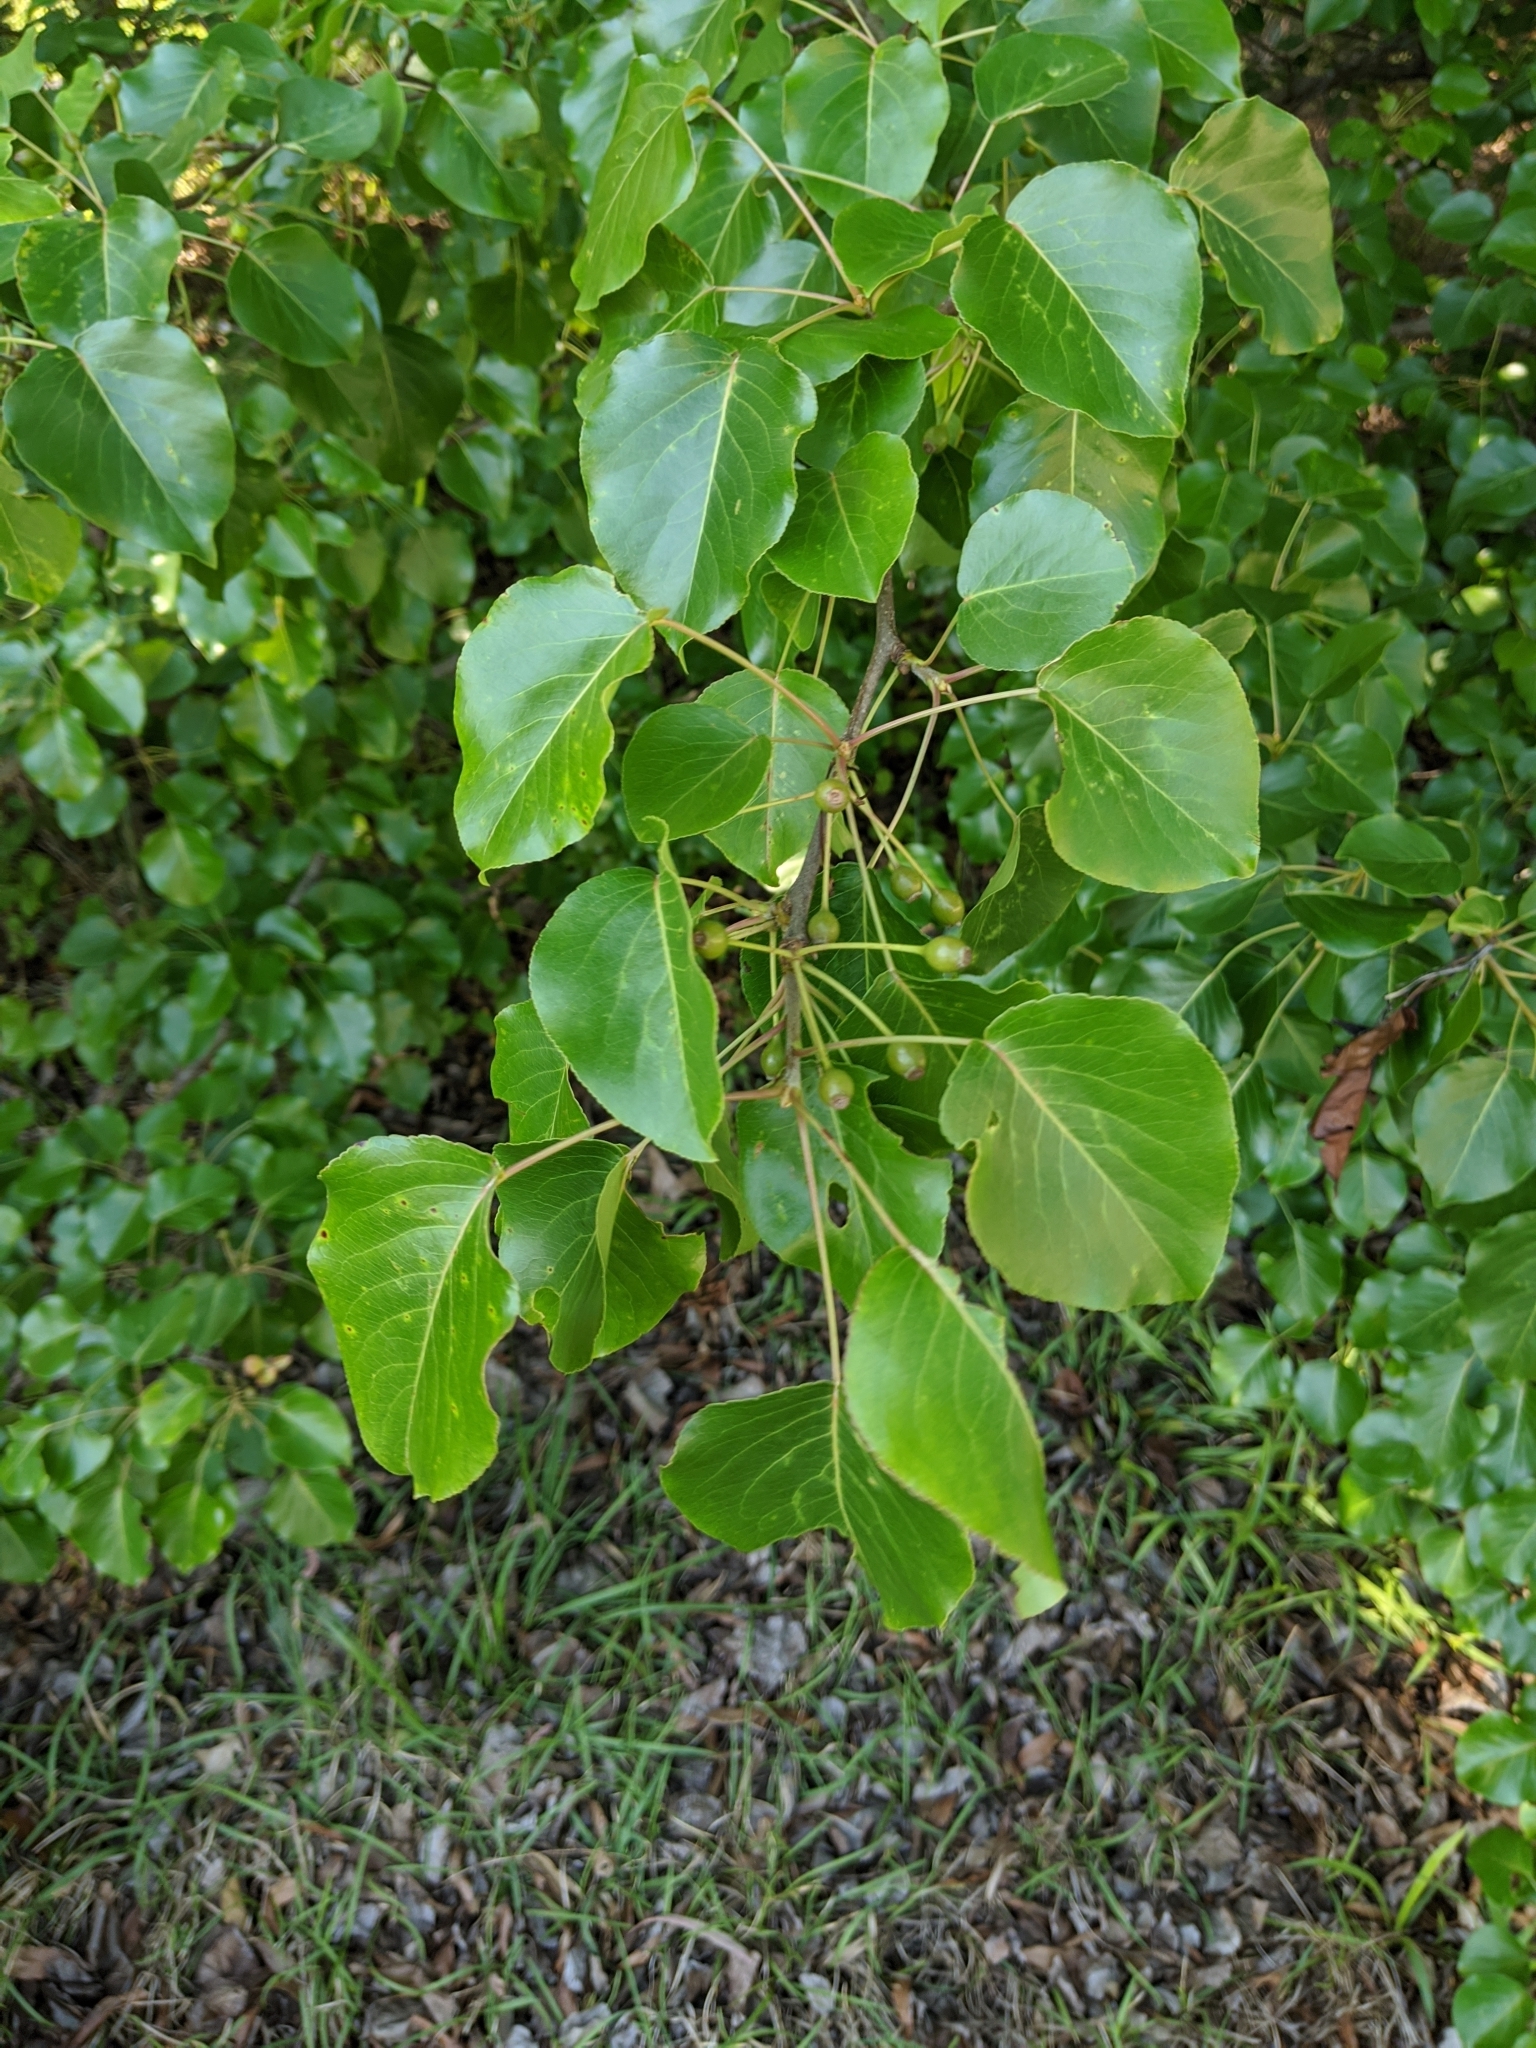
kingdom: Plantae
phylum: Tracheophyta
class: Magnoliopsida
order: Rosales
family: Rosaceae
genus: Pyrus
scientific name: Pyrus calleryana
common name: Callery pear
